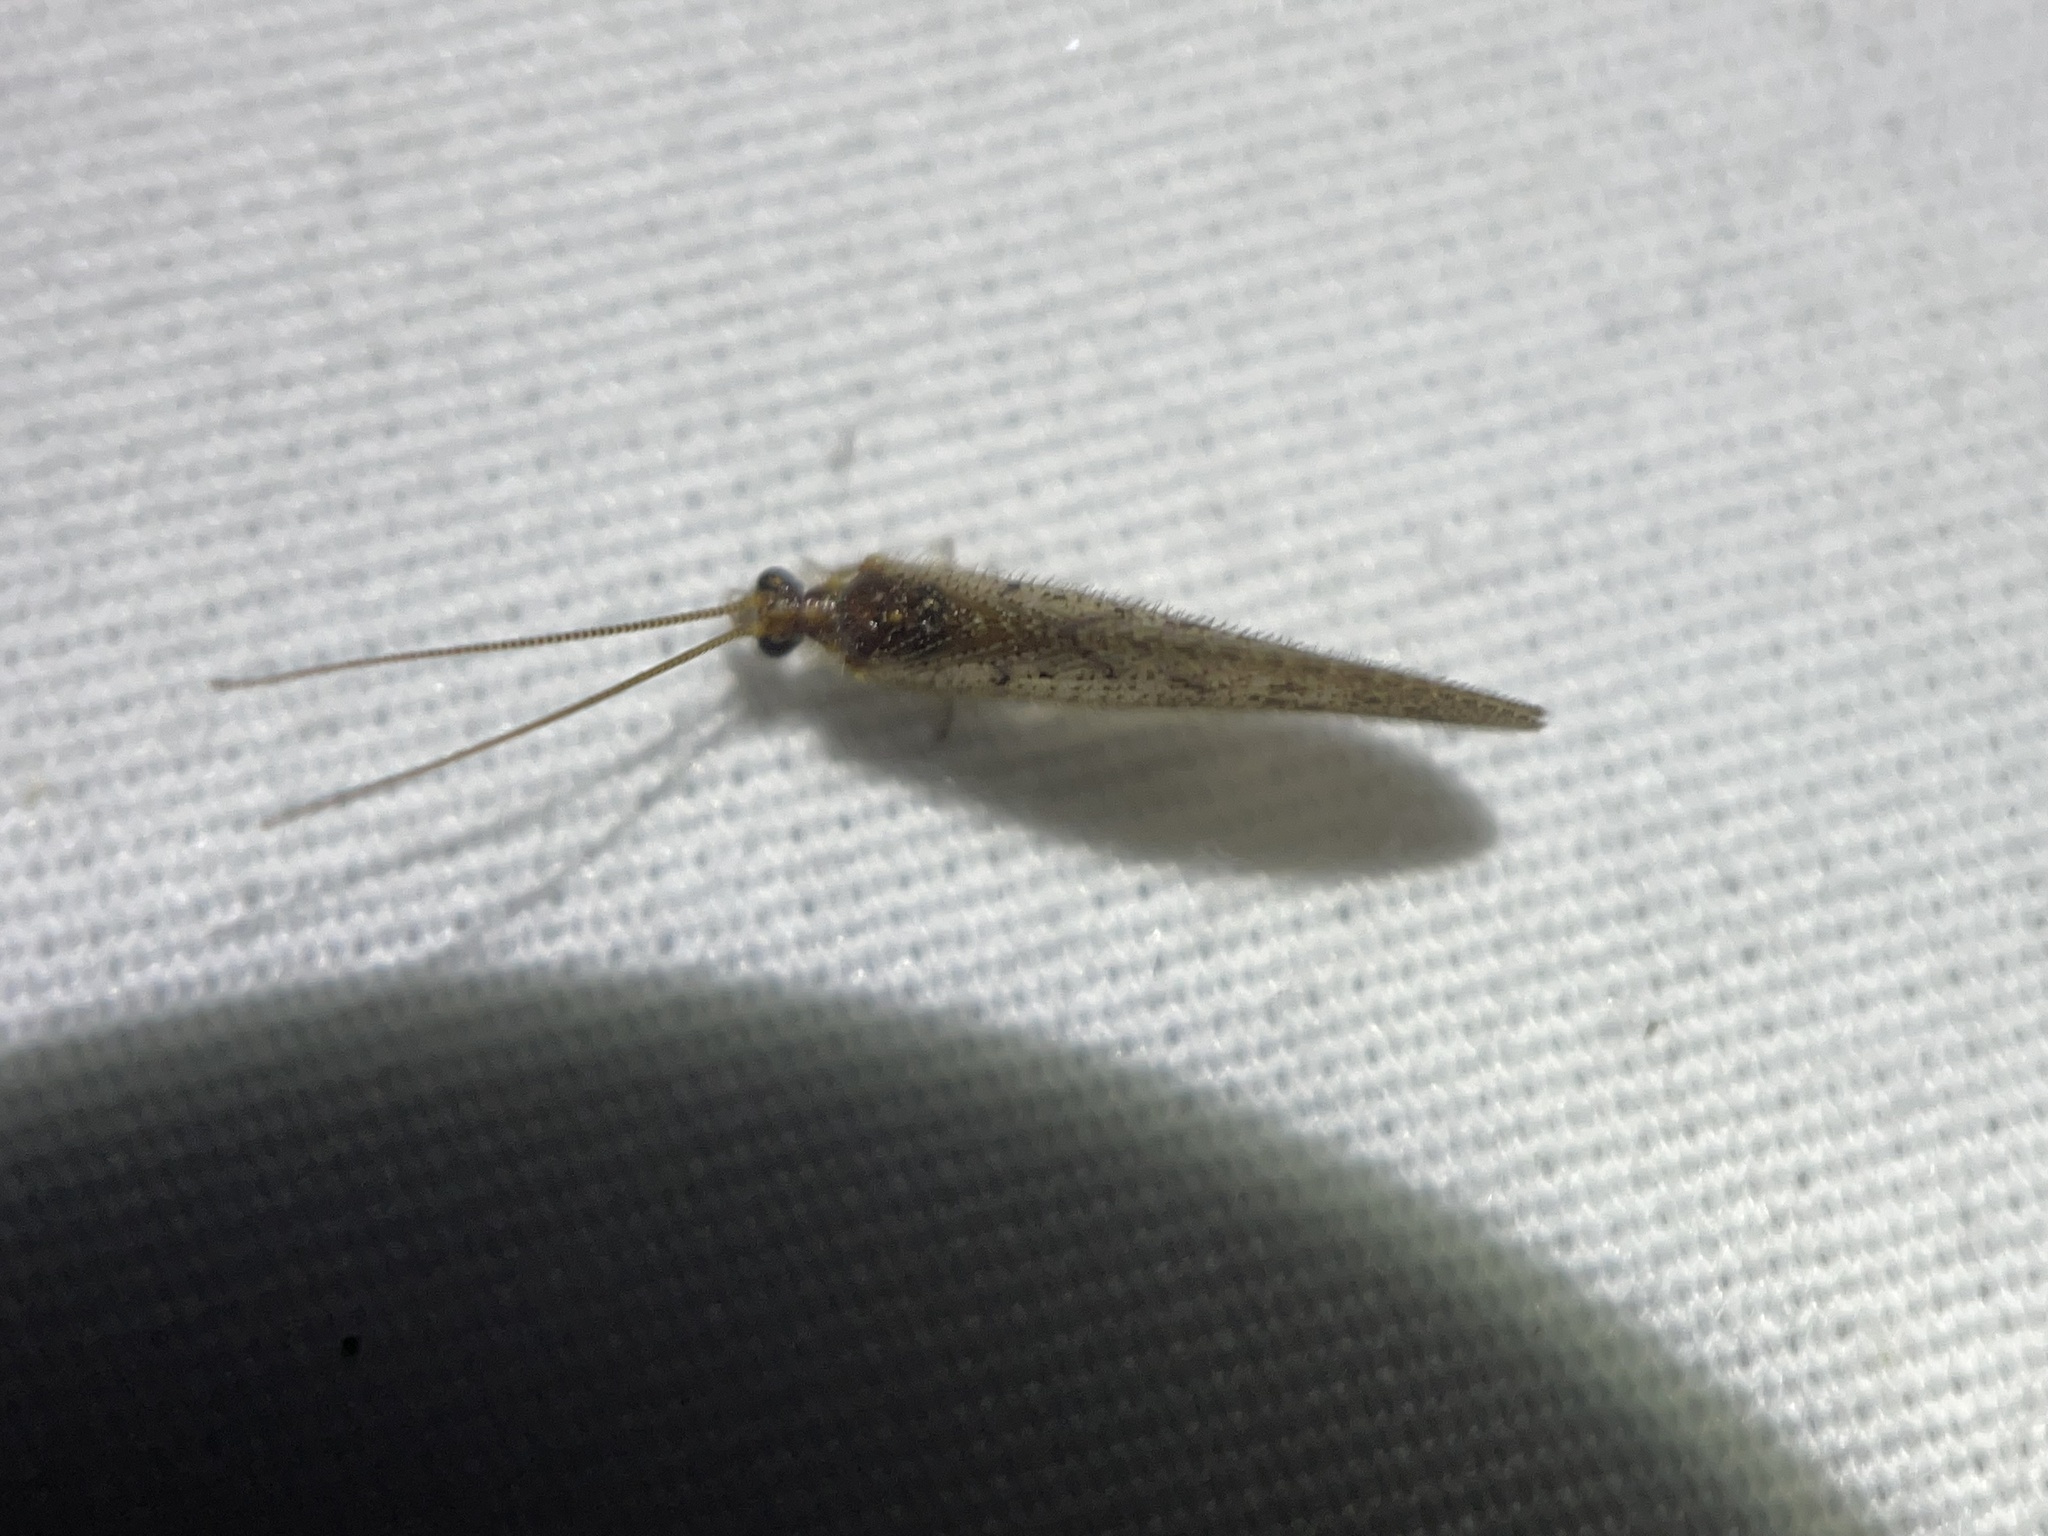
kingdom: Animalia
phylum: Arthropoda
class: Insecta
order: Neuroptera
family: Hemerobiidae
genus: Hemerobius
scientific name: Hemerobius stigma
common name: Brown pine lacewing
